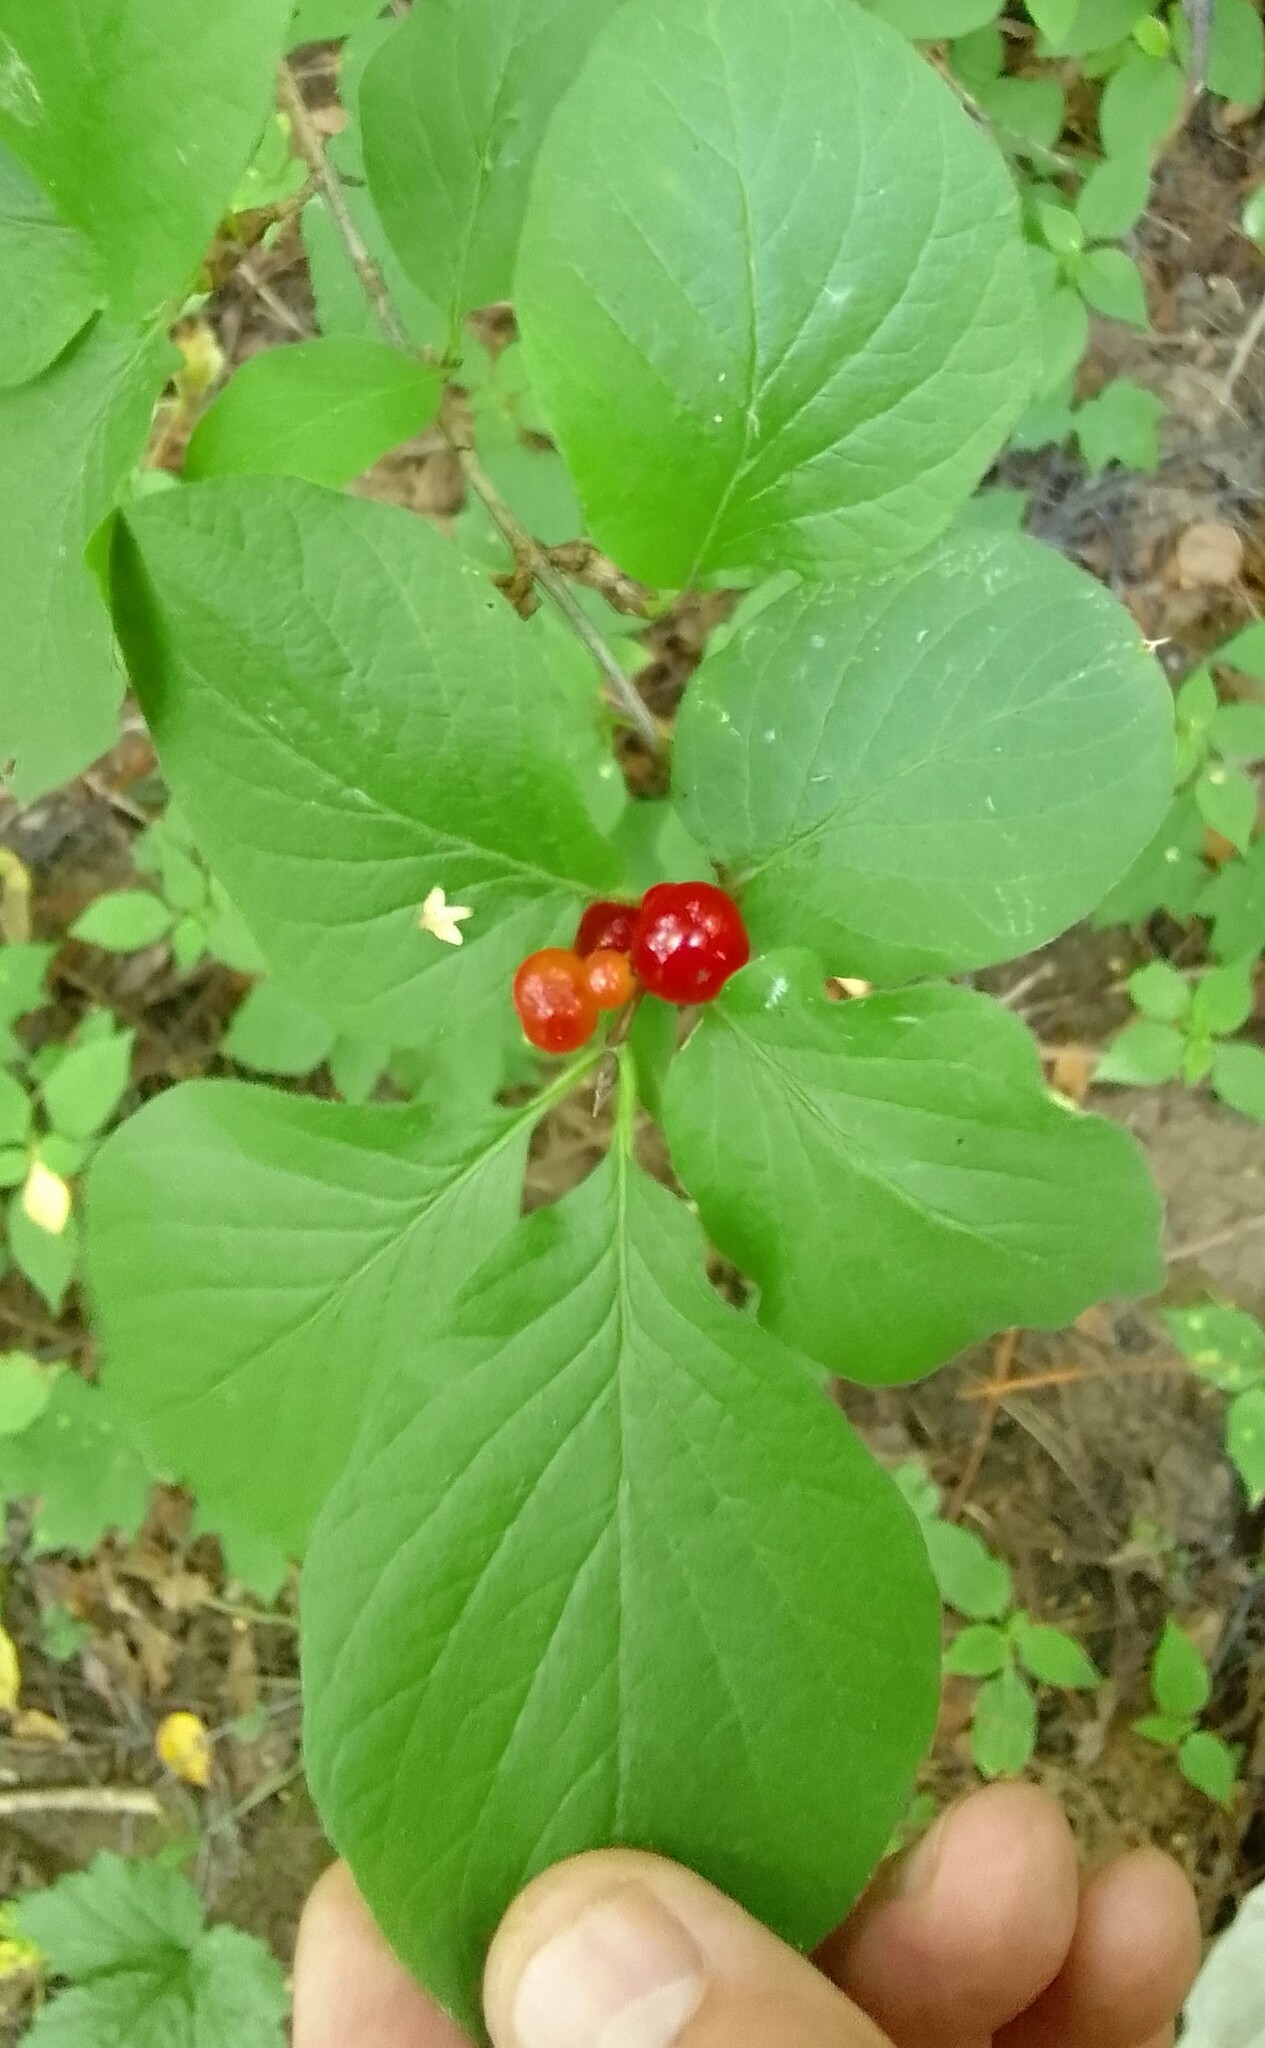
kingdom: Plantae
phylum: Tracheophyta
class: Magnoliopsida
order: Dipsacales
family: Caprifoliaceae
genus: Lonicera
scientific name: Lonicera xylosteum
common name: Fly honeysuckle
